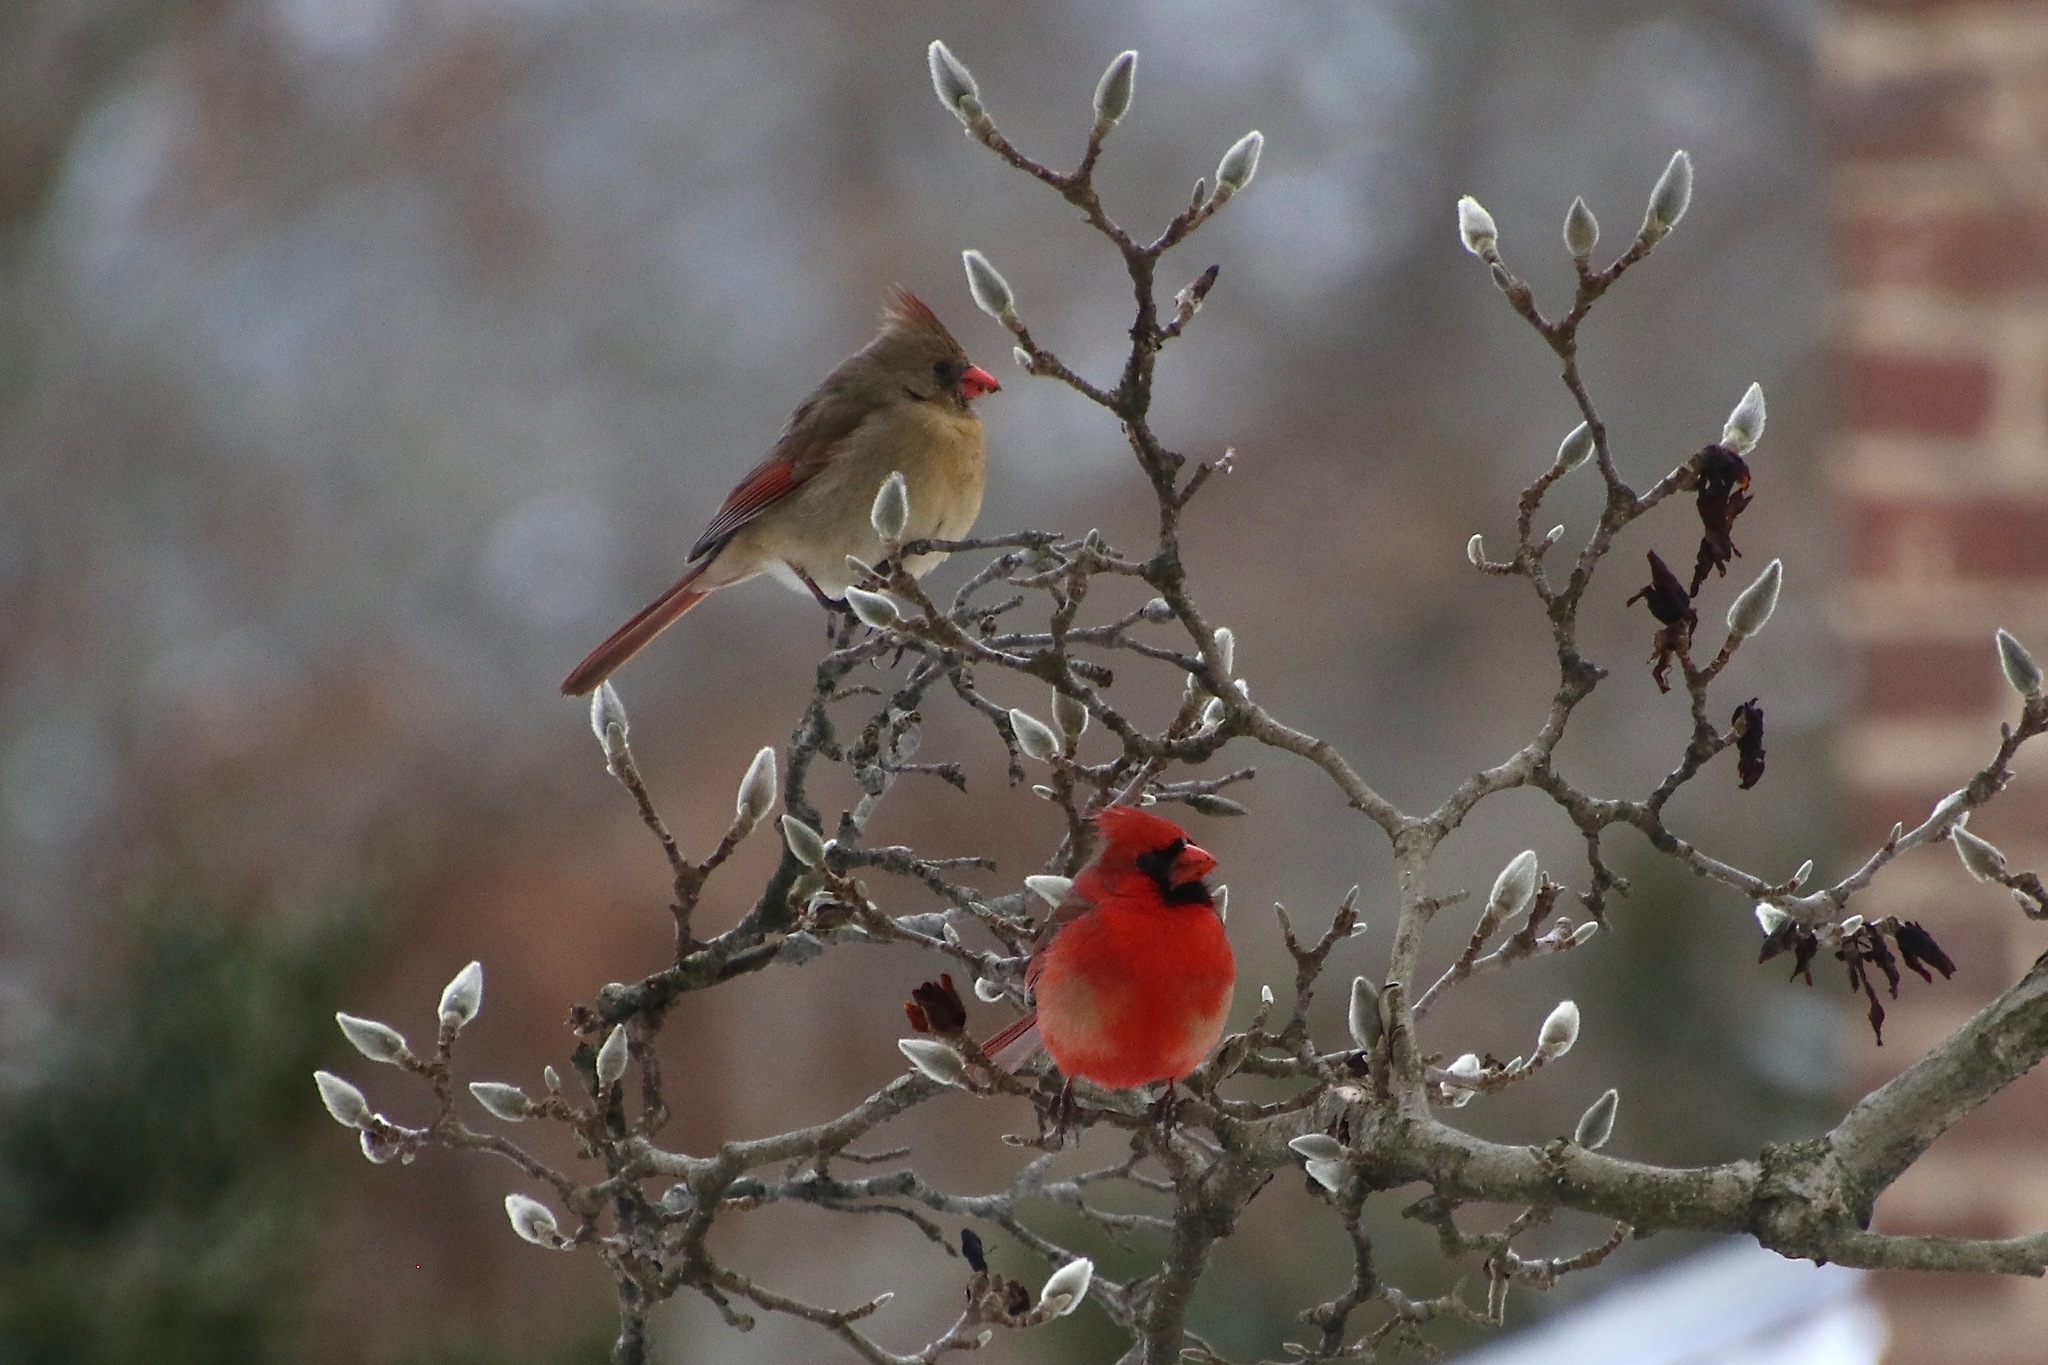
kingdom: Animalia
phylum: Chordata
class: Aves
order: Passeriformes
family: Cardinalidae
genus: Cardinalis
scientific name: Cardinalis cardinalis
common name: Northern cardinal
